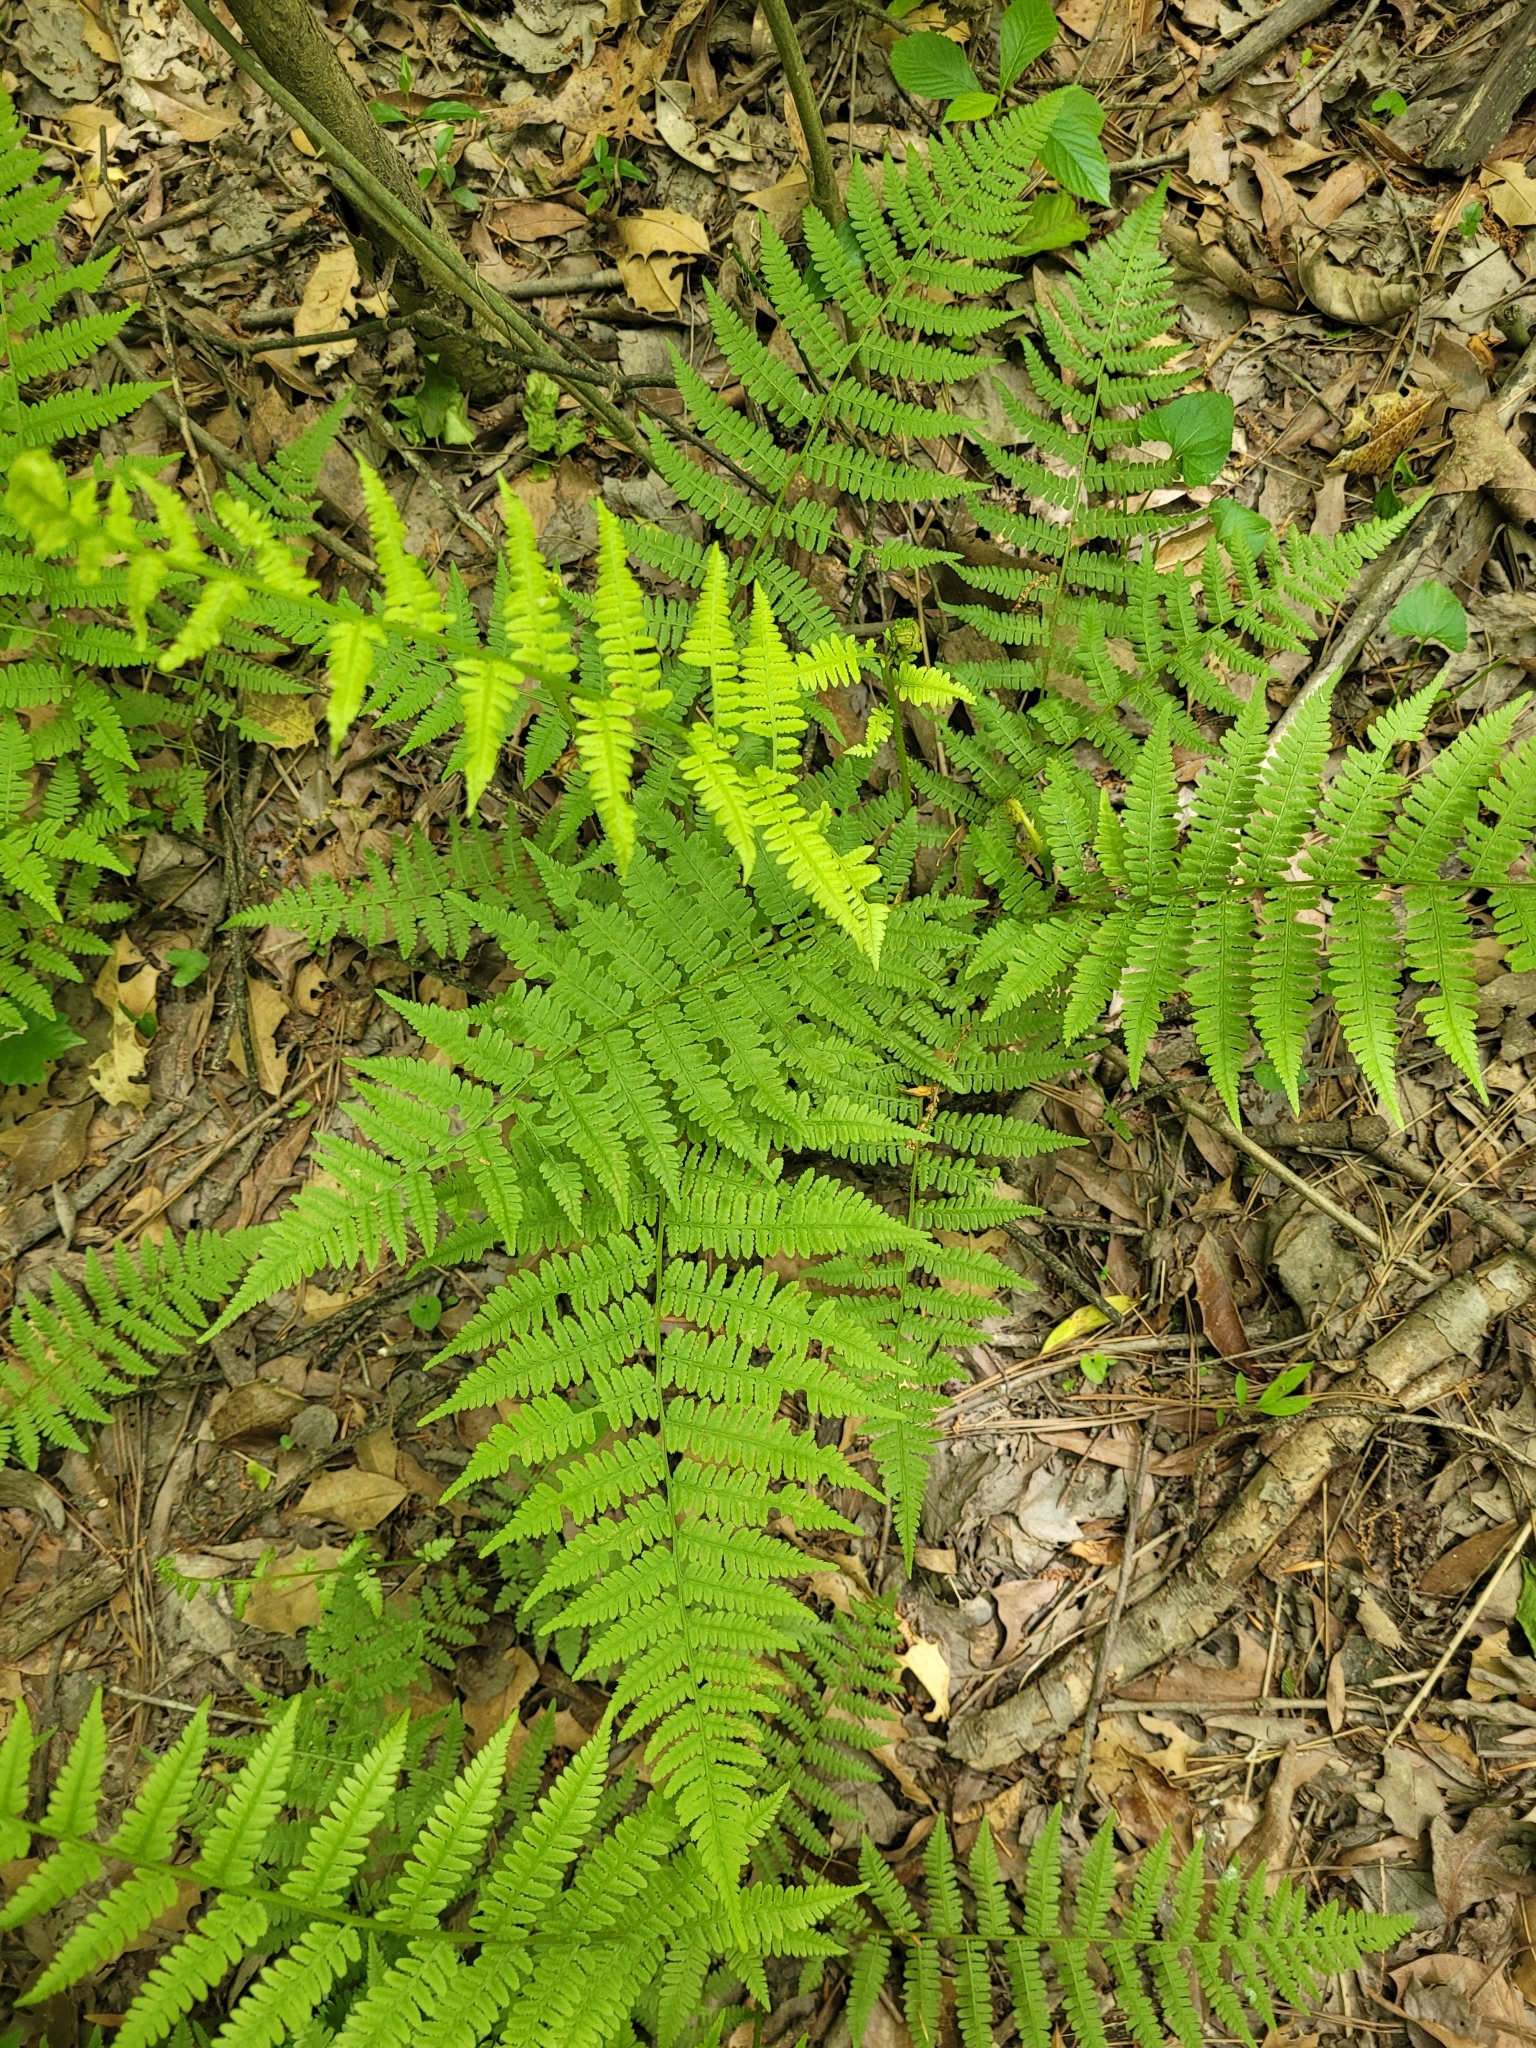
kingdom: Plantae
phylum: Tracheophyta
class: Polypodiopsida
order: Polypodiales
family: Athyriaceae
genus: Athyrium
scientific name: Athyrium asplenioides
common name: Southern lady fern
